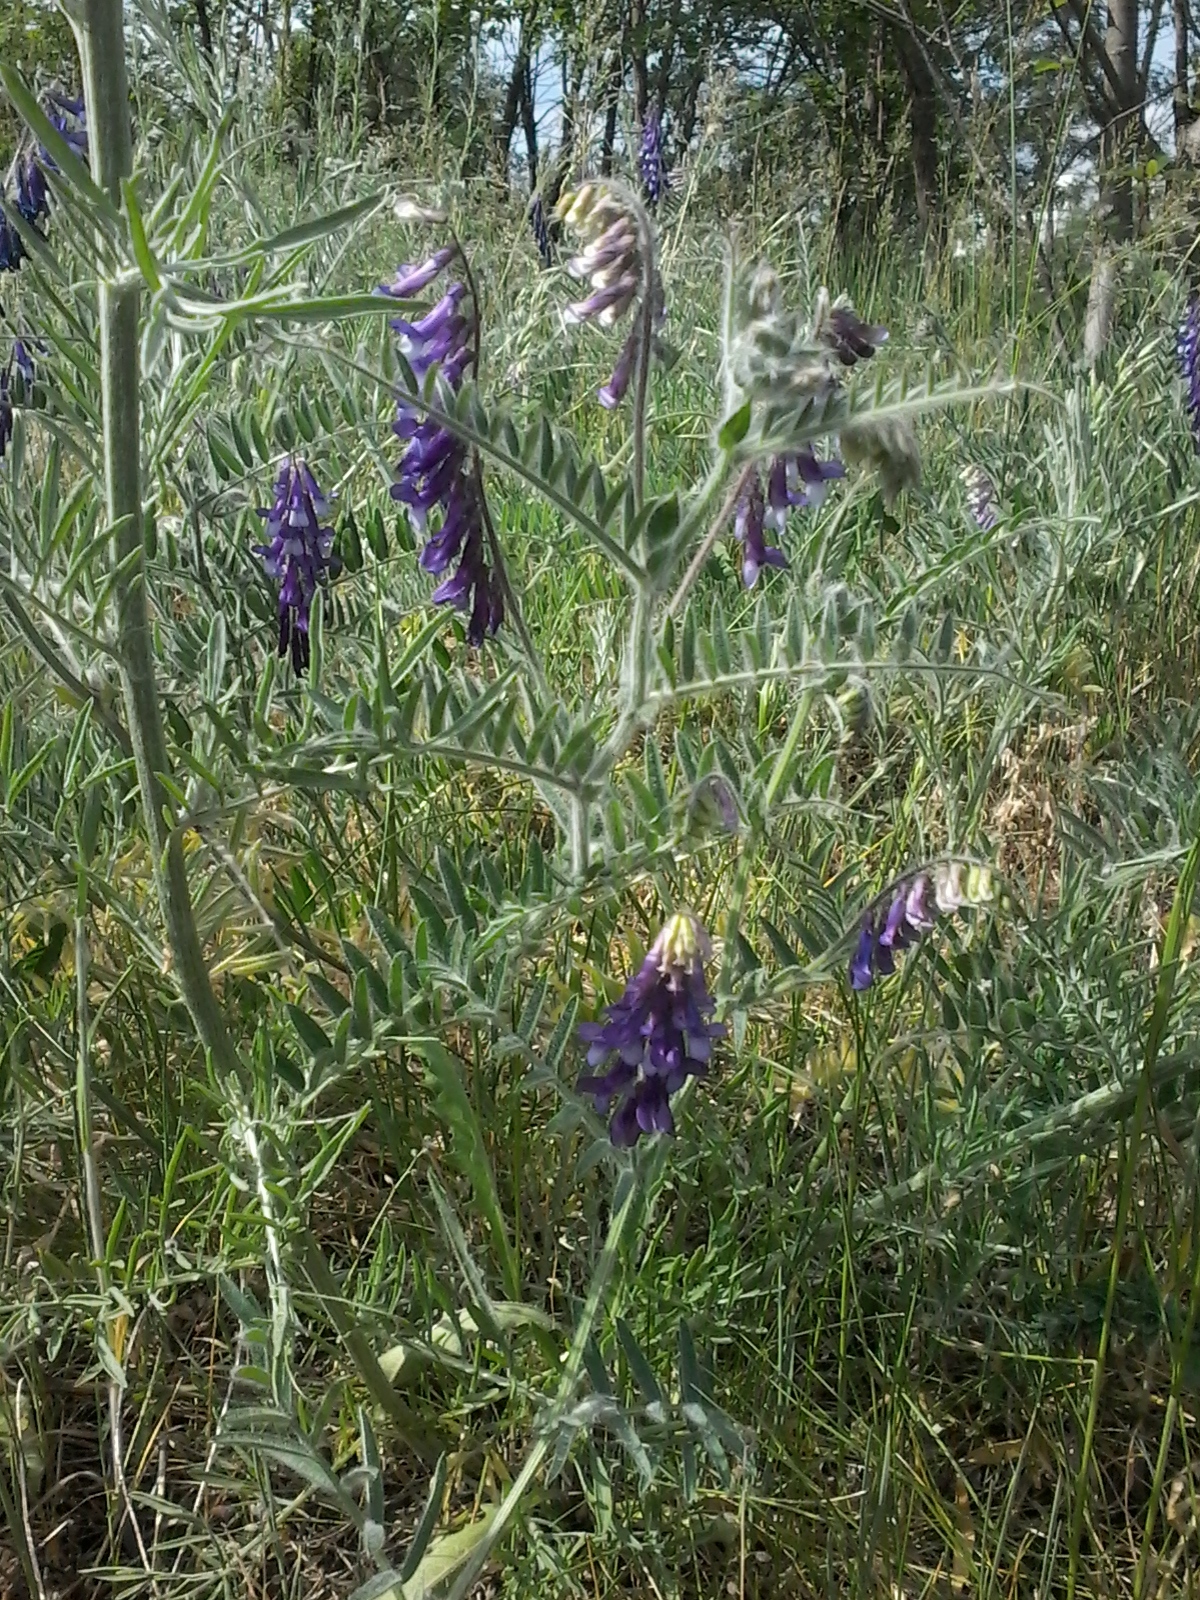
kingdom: Plantae
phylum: Tracheophyta
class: Magnoliopsida
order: Fabales
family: Fabaceae
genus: Vicia
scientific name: Vicia villosa
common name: Fodder vetch
